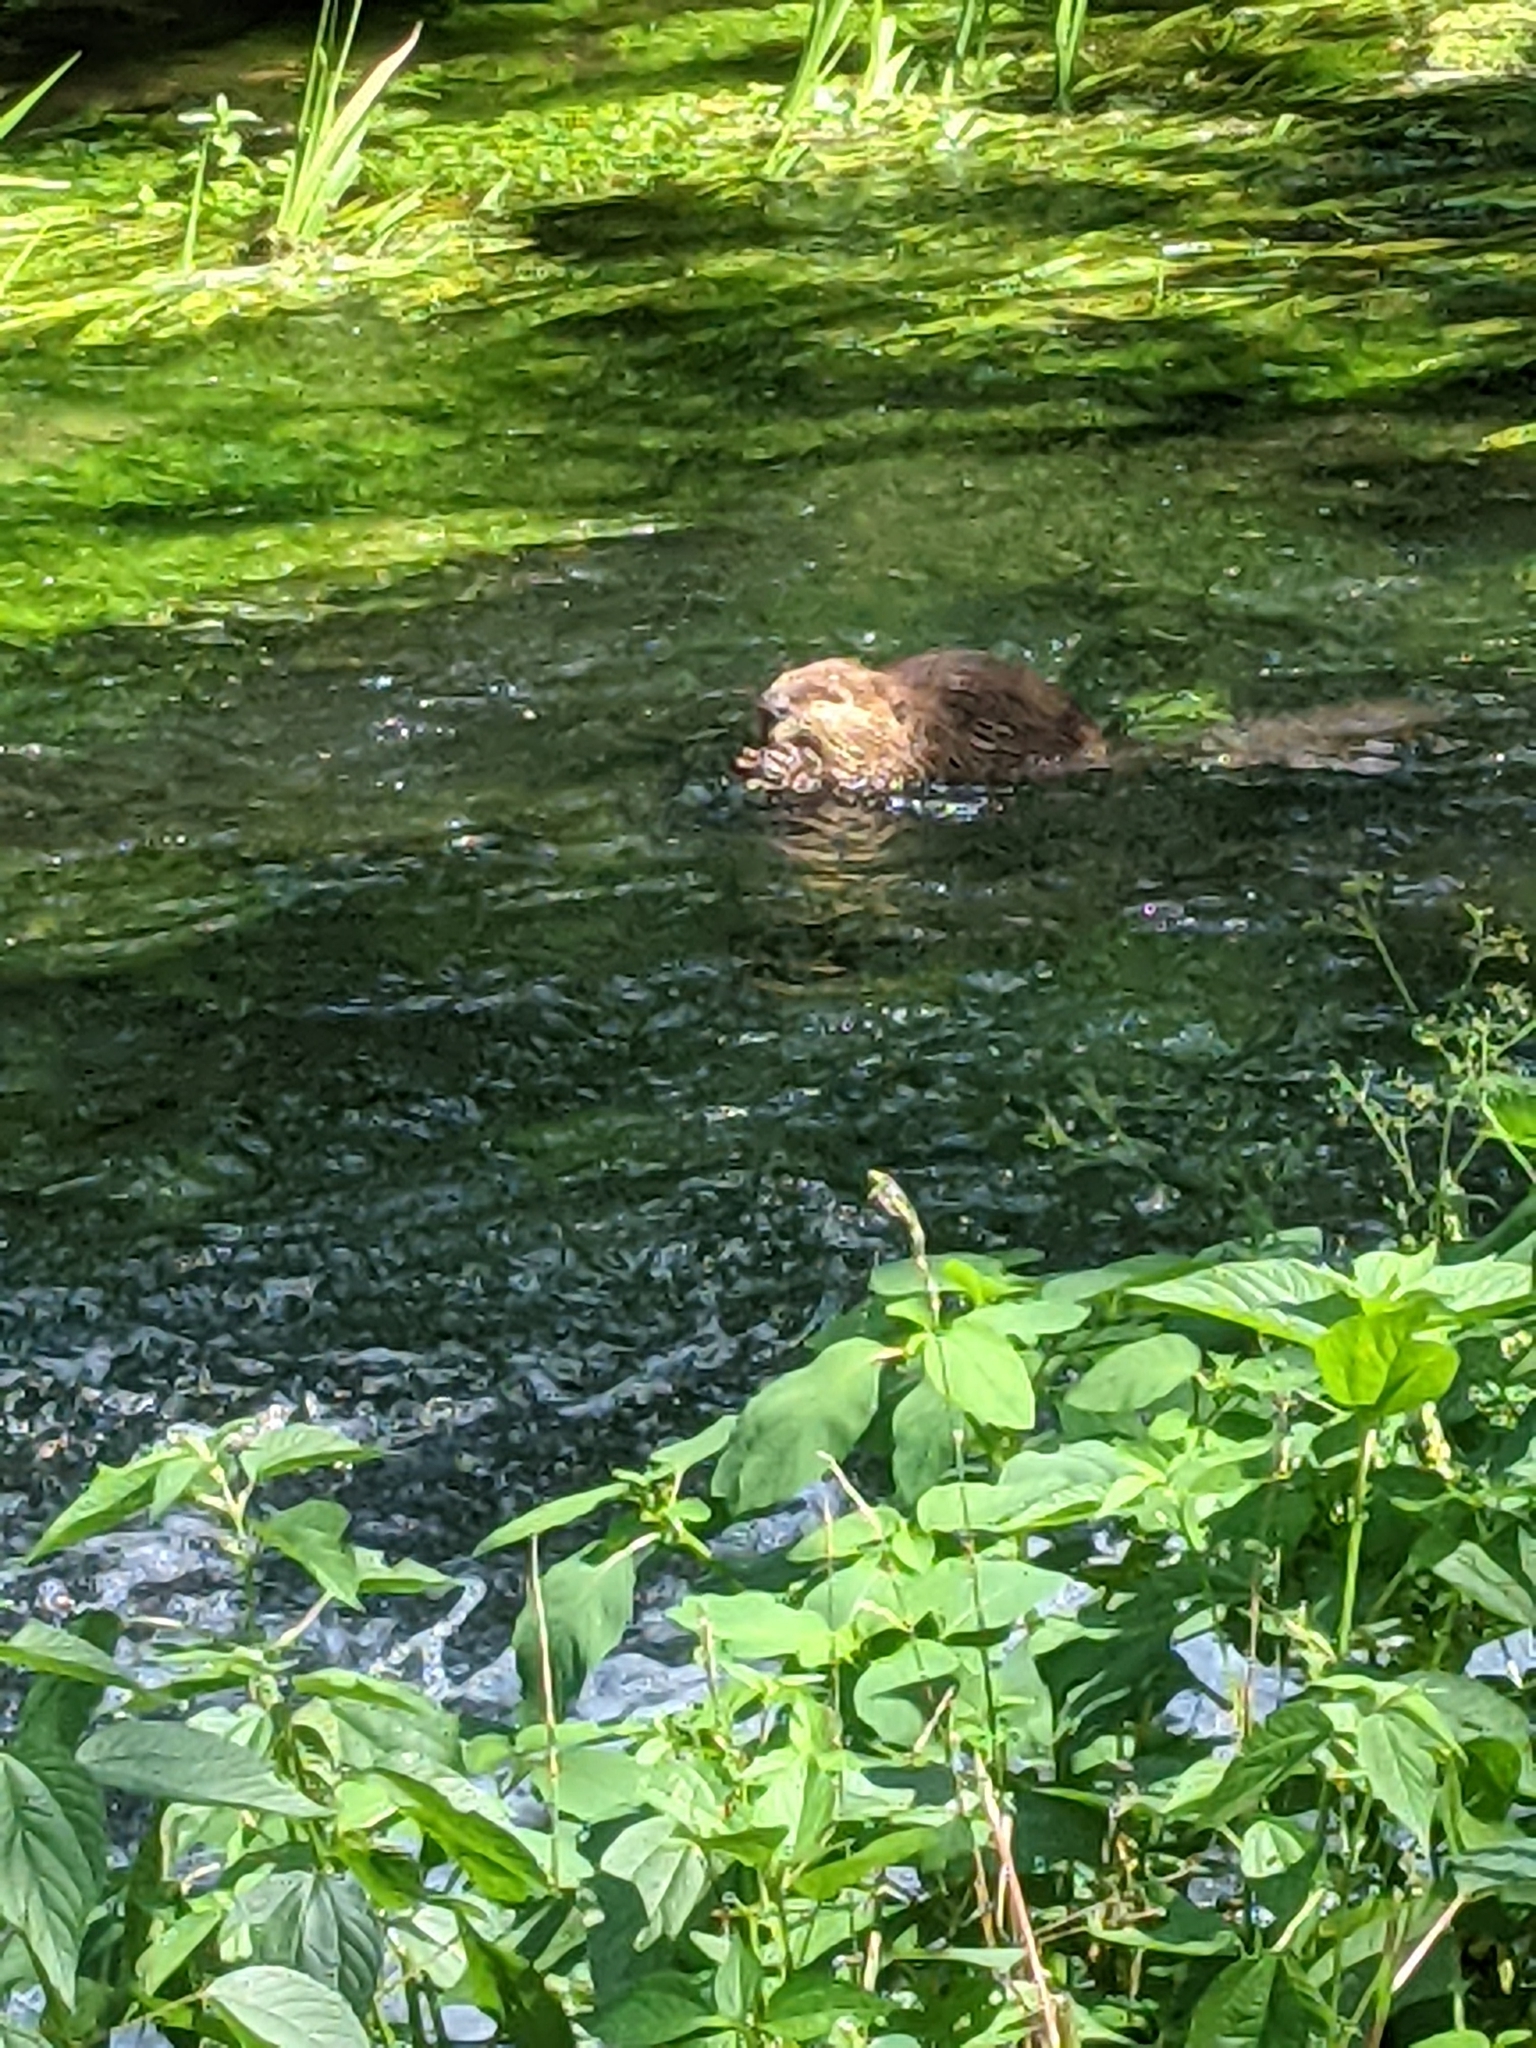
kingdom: Animalia
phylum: Chordata
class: Mammalia
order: Rodentia
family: Castoridae
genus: Castor
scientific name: Castor canadensis
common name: American beaver
